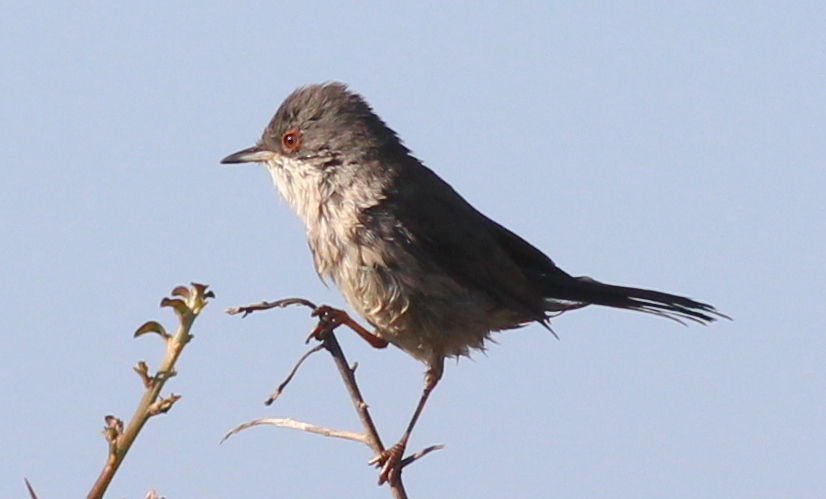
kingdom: Animalia
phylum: Chordata
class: Aves
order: Passeriformes
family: Sylviidae
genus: Curruca
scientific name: Curruca melanocephala
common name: Sardinian warbler
